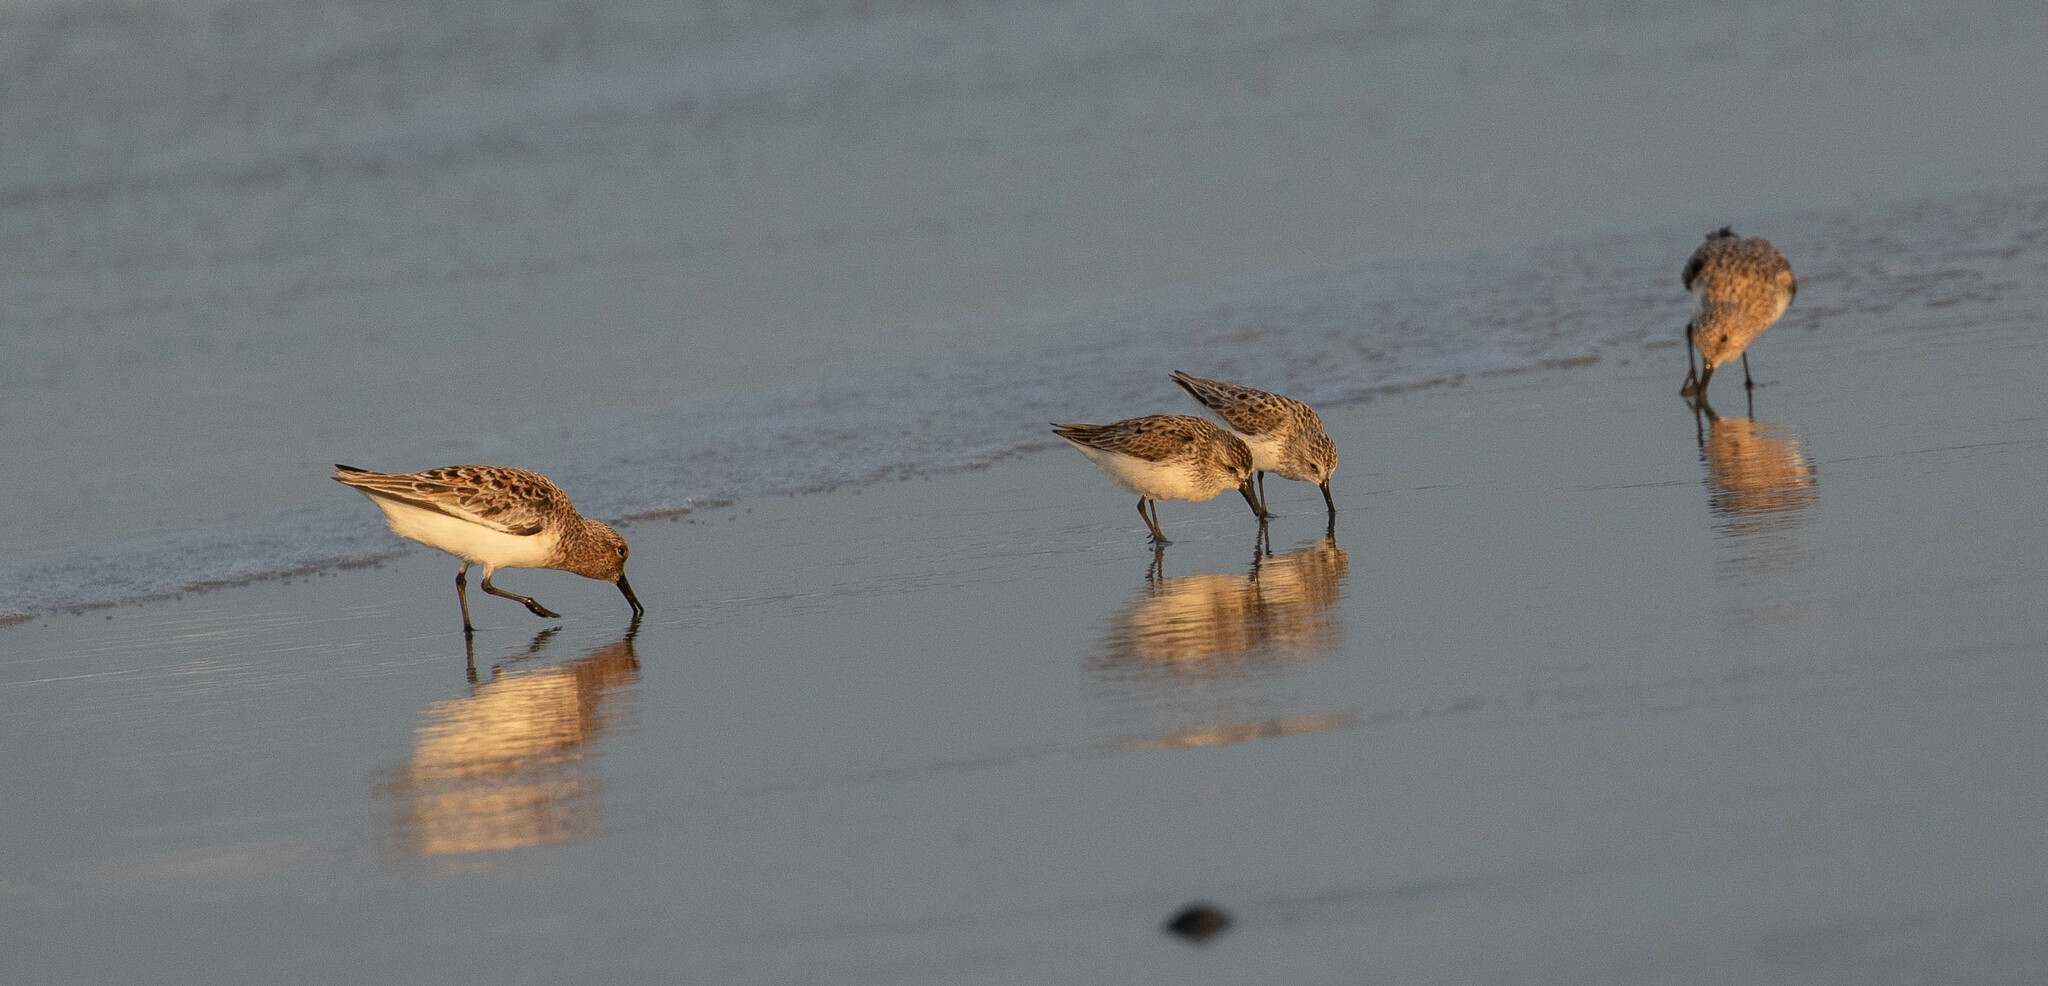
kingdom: Animalia
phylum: Chordata
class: Aves
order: Charadriiformes
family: Scolopacidae
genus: Calidris
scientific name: Calidris alba
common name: Sanderling
